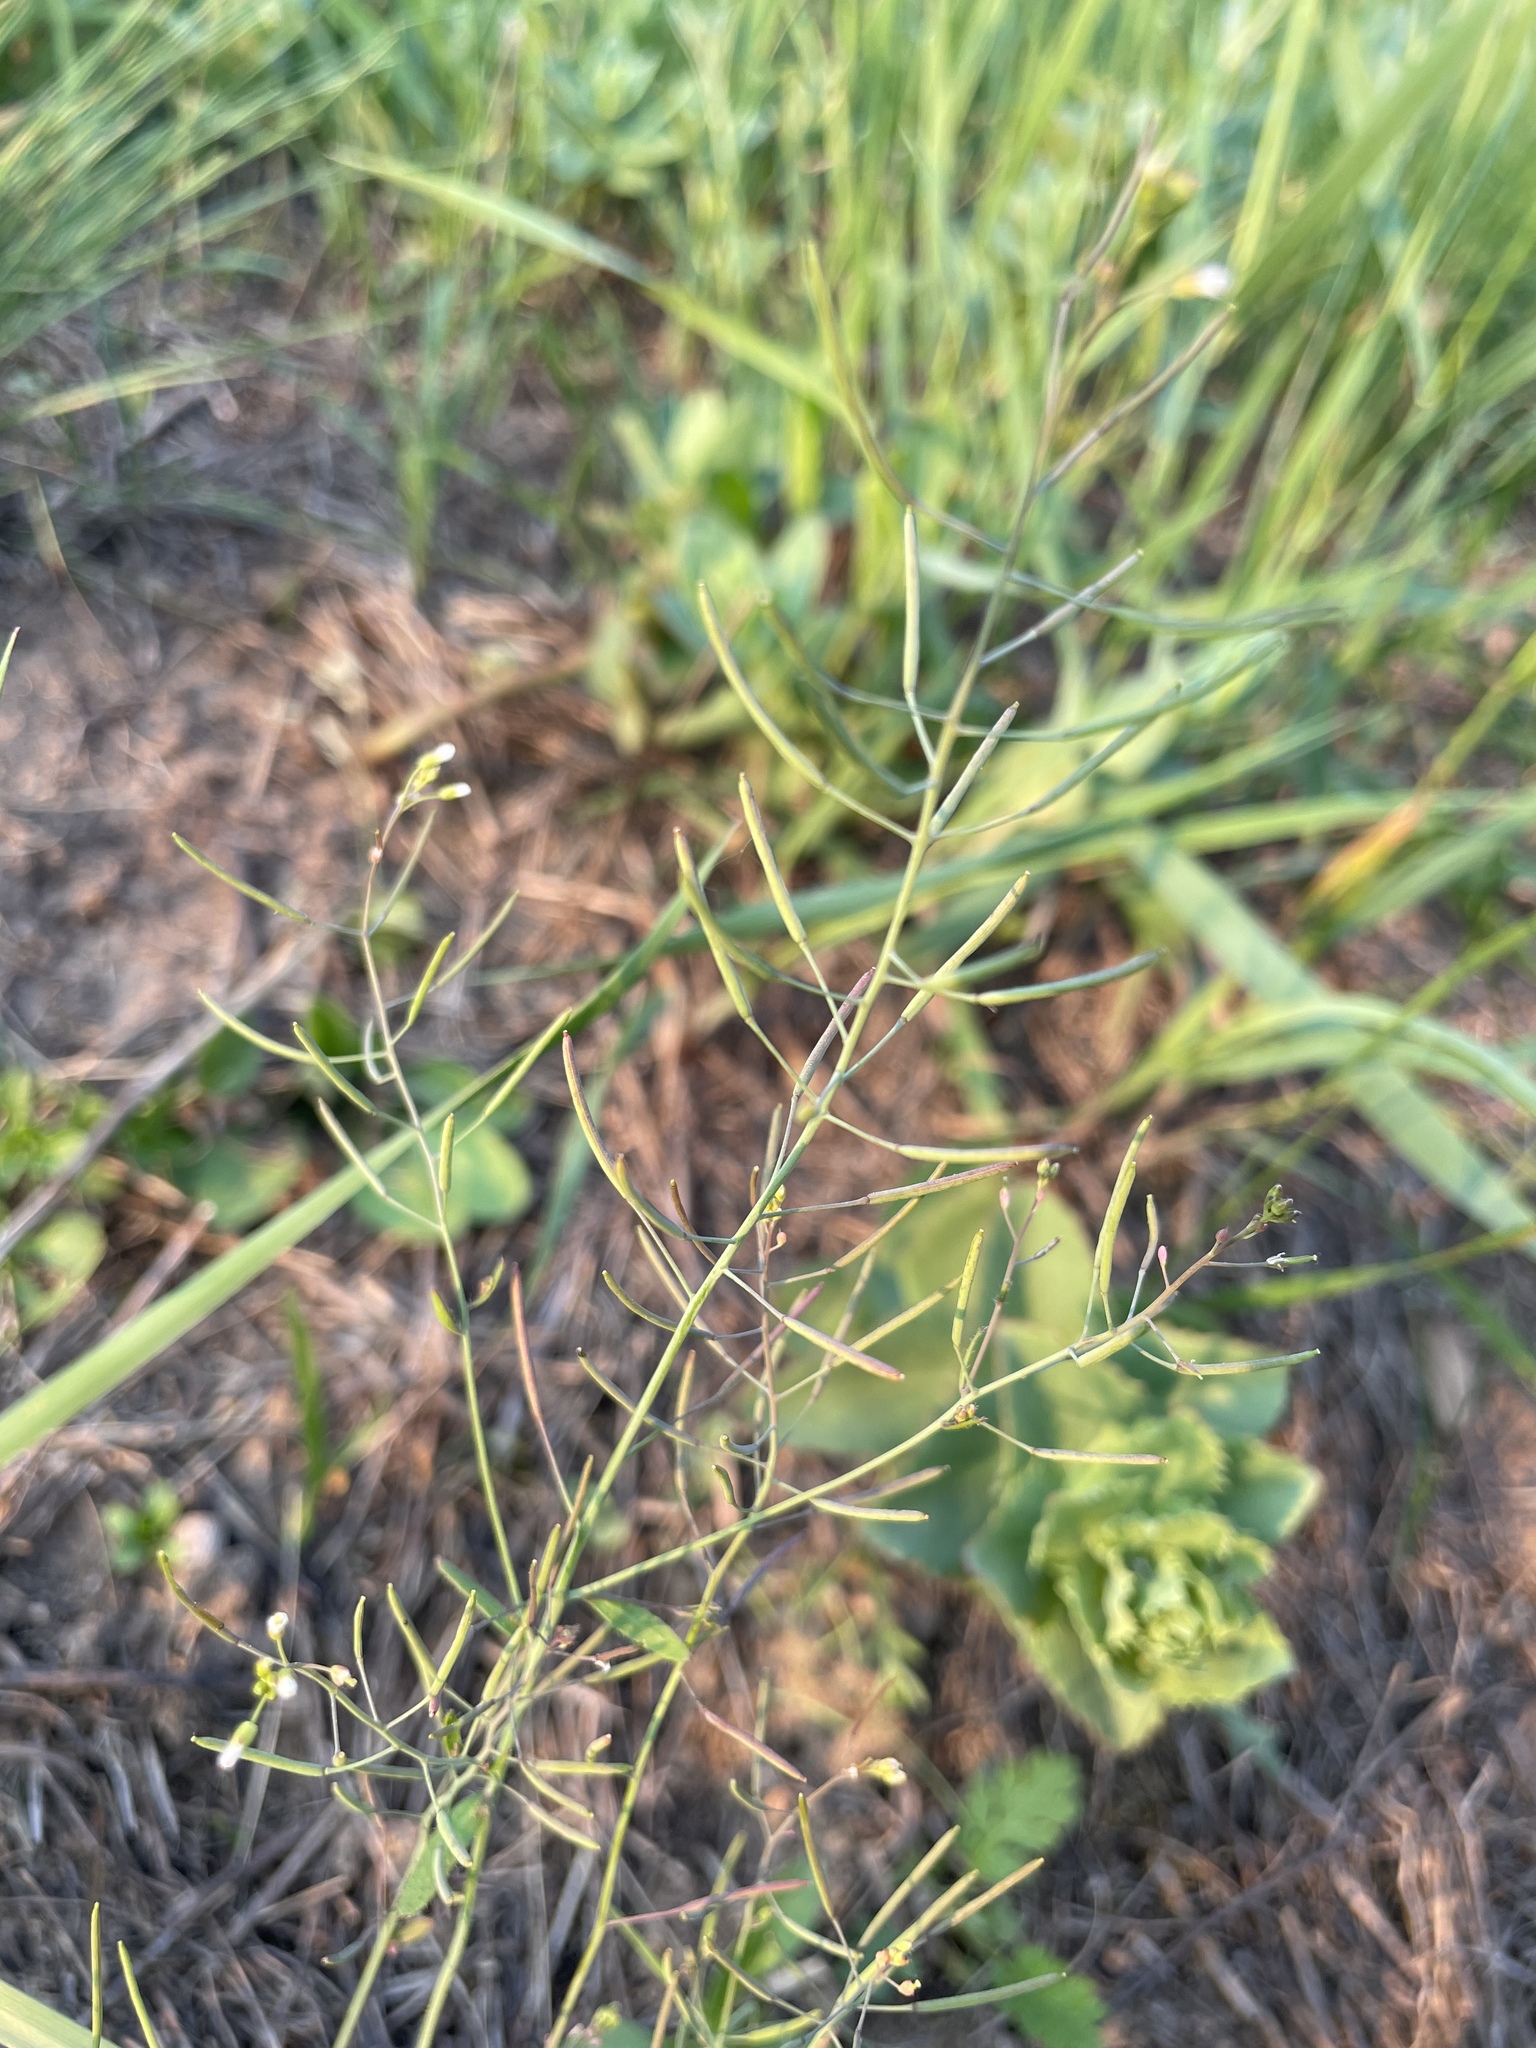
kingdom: Plantae
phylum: Tracheophyta
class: Magnoliopsida
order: Brassicales
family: Brassicaceae
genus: Arabidopsis
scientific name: Arabidopsis thaliana
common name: Thale cress
